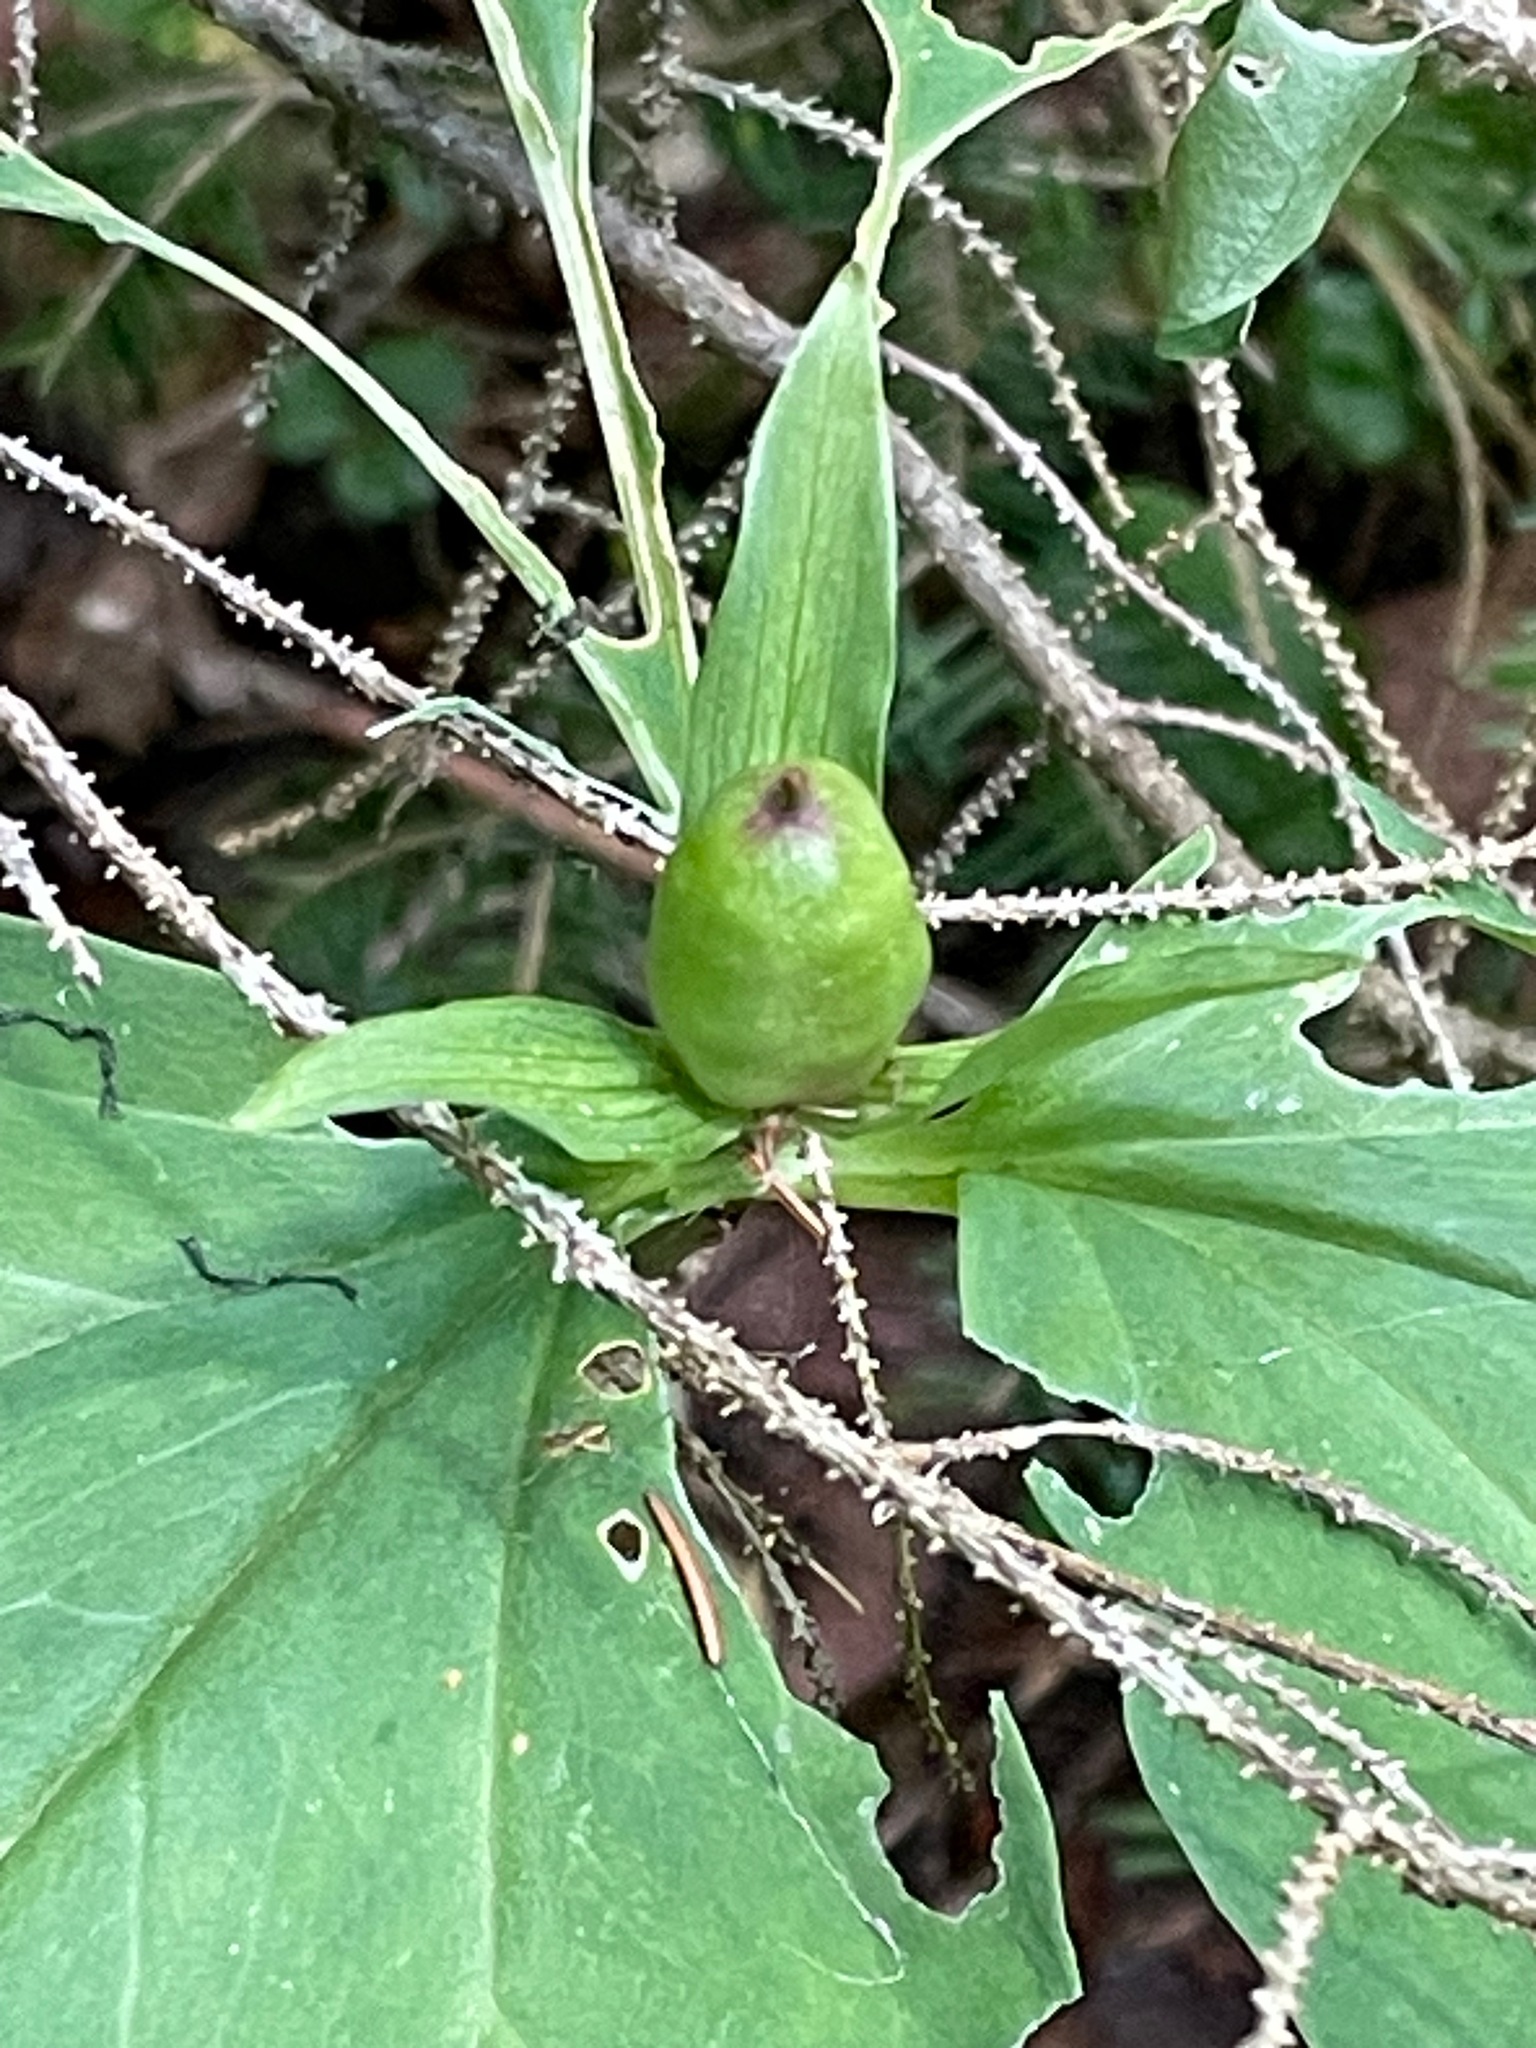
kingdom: Plantae
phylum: Tracheophyta
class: Liliopsida
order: Liliales
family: Melanthiaceae
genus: Trillium
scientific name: Trillium undulatum
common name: Paint trillium
